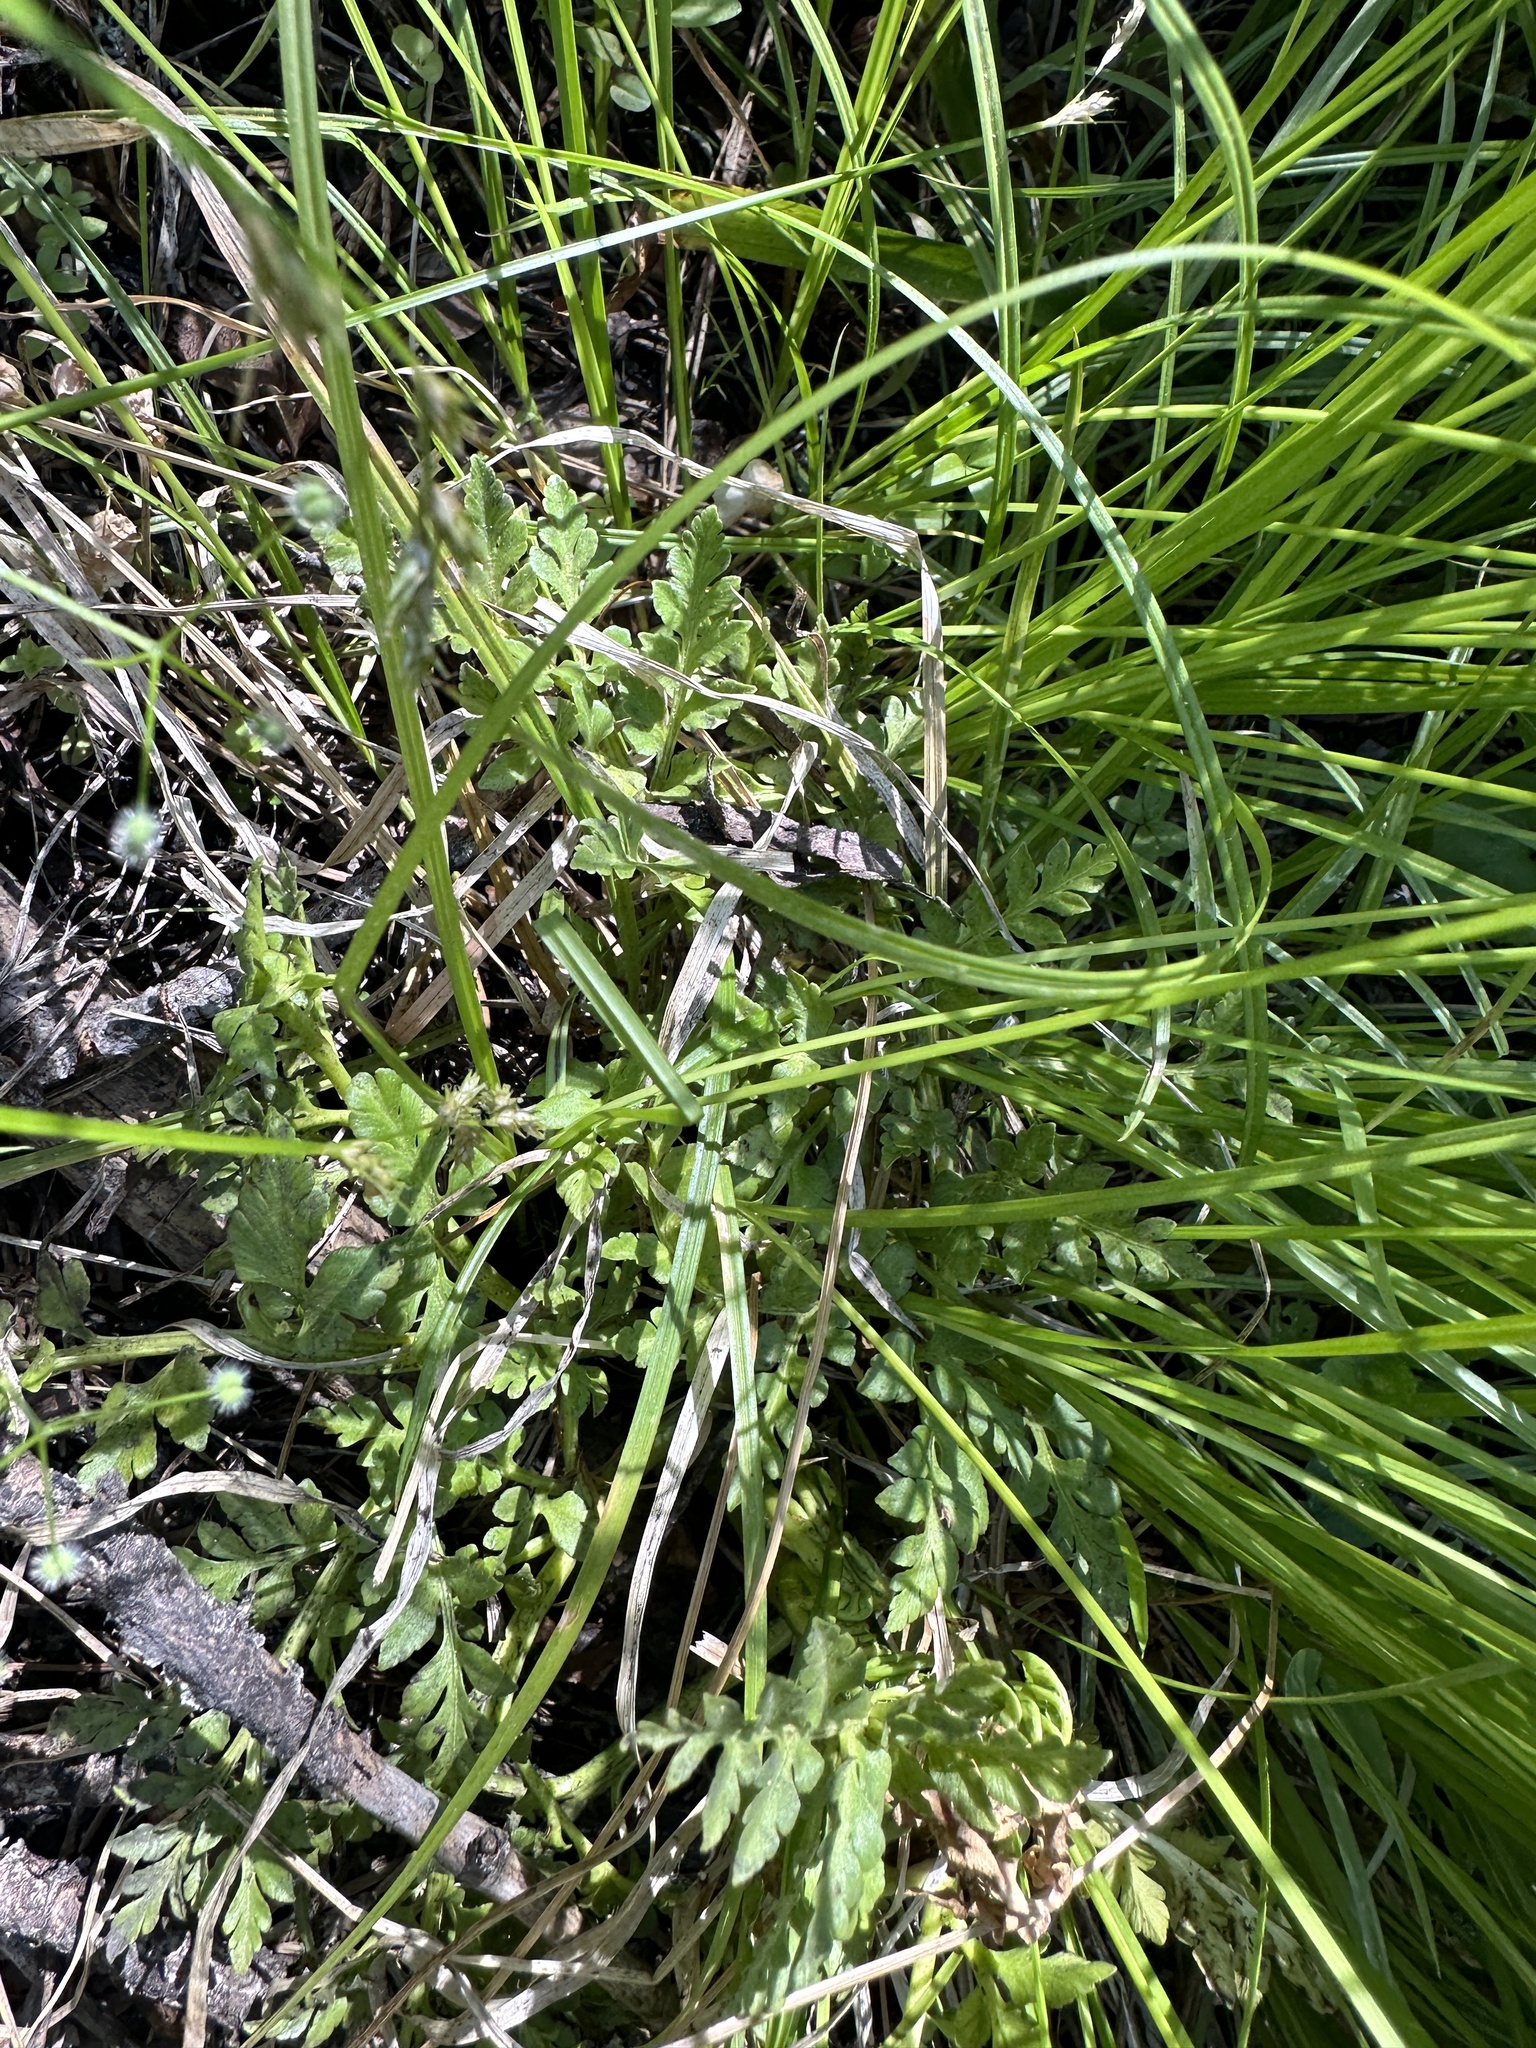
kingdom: Plantae
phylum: Tracheophyta
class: Polypodiopsida
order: Ophioglossales
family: Ophioglossaceae
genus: Sceptridium
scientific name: Sceptridium multifidum
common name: Leathery grape fern
